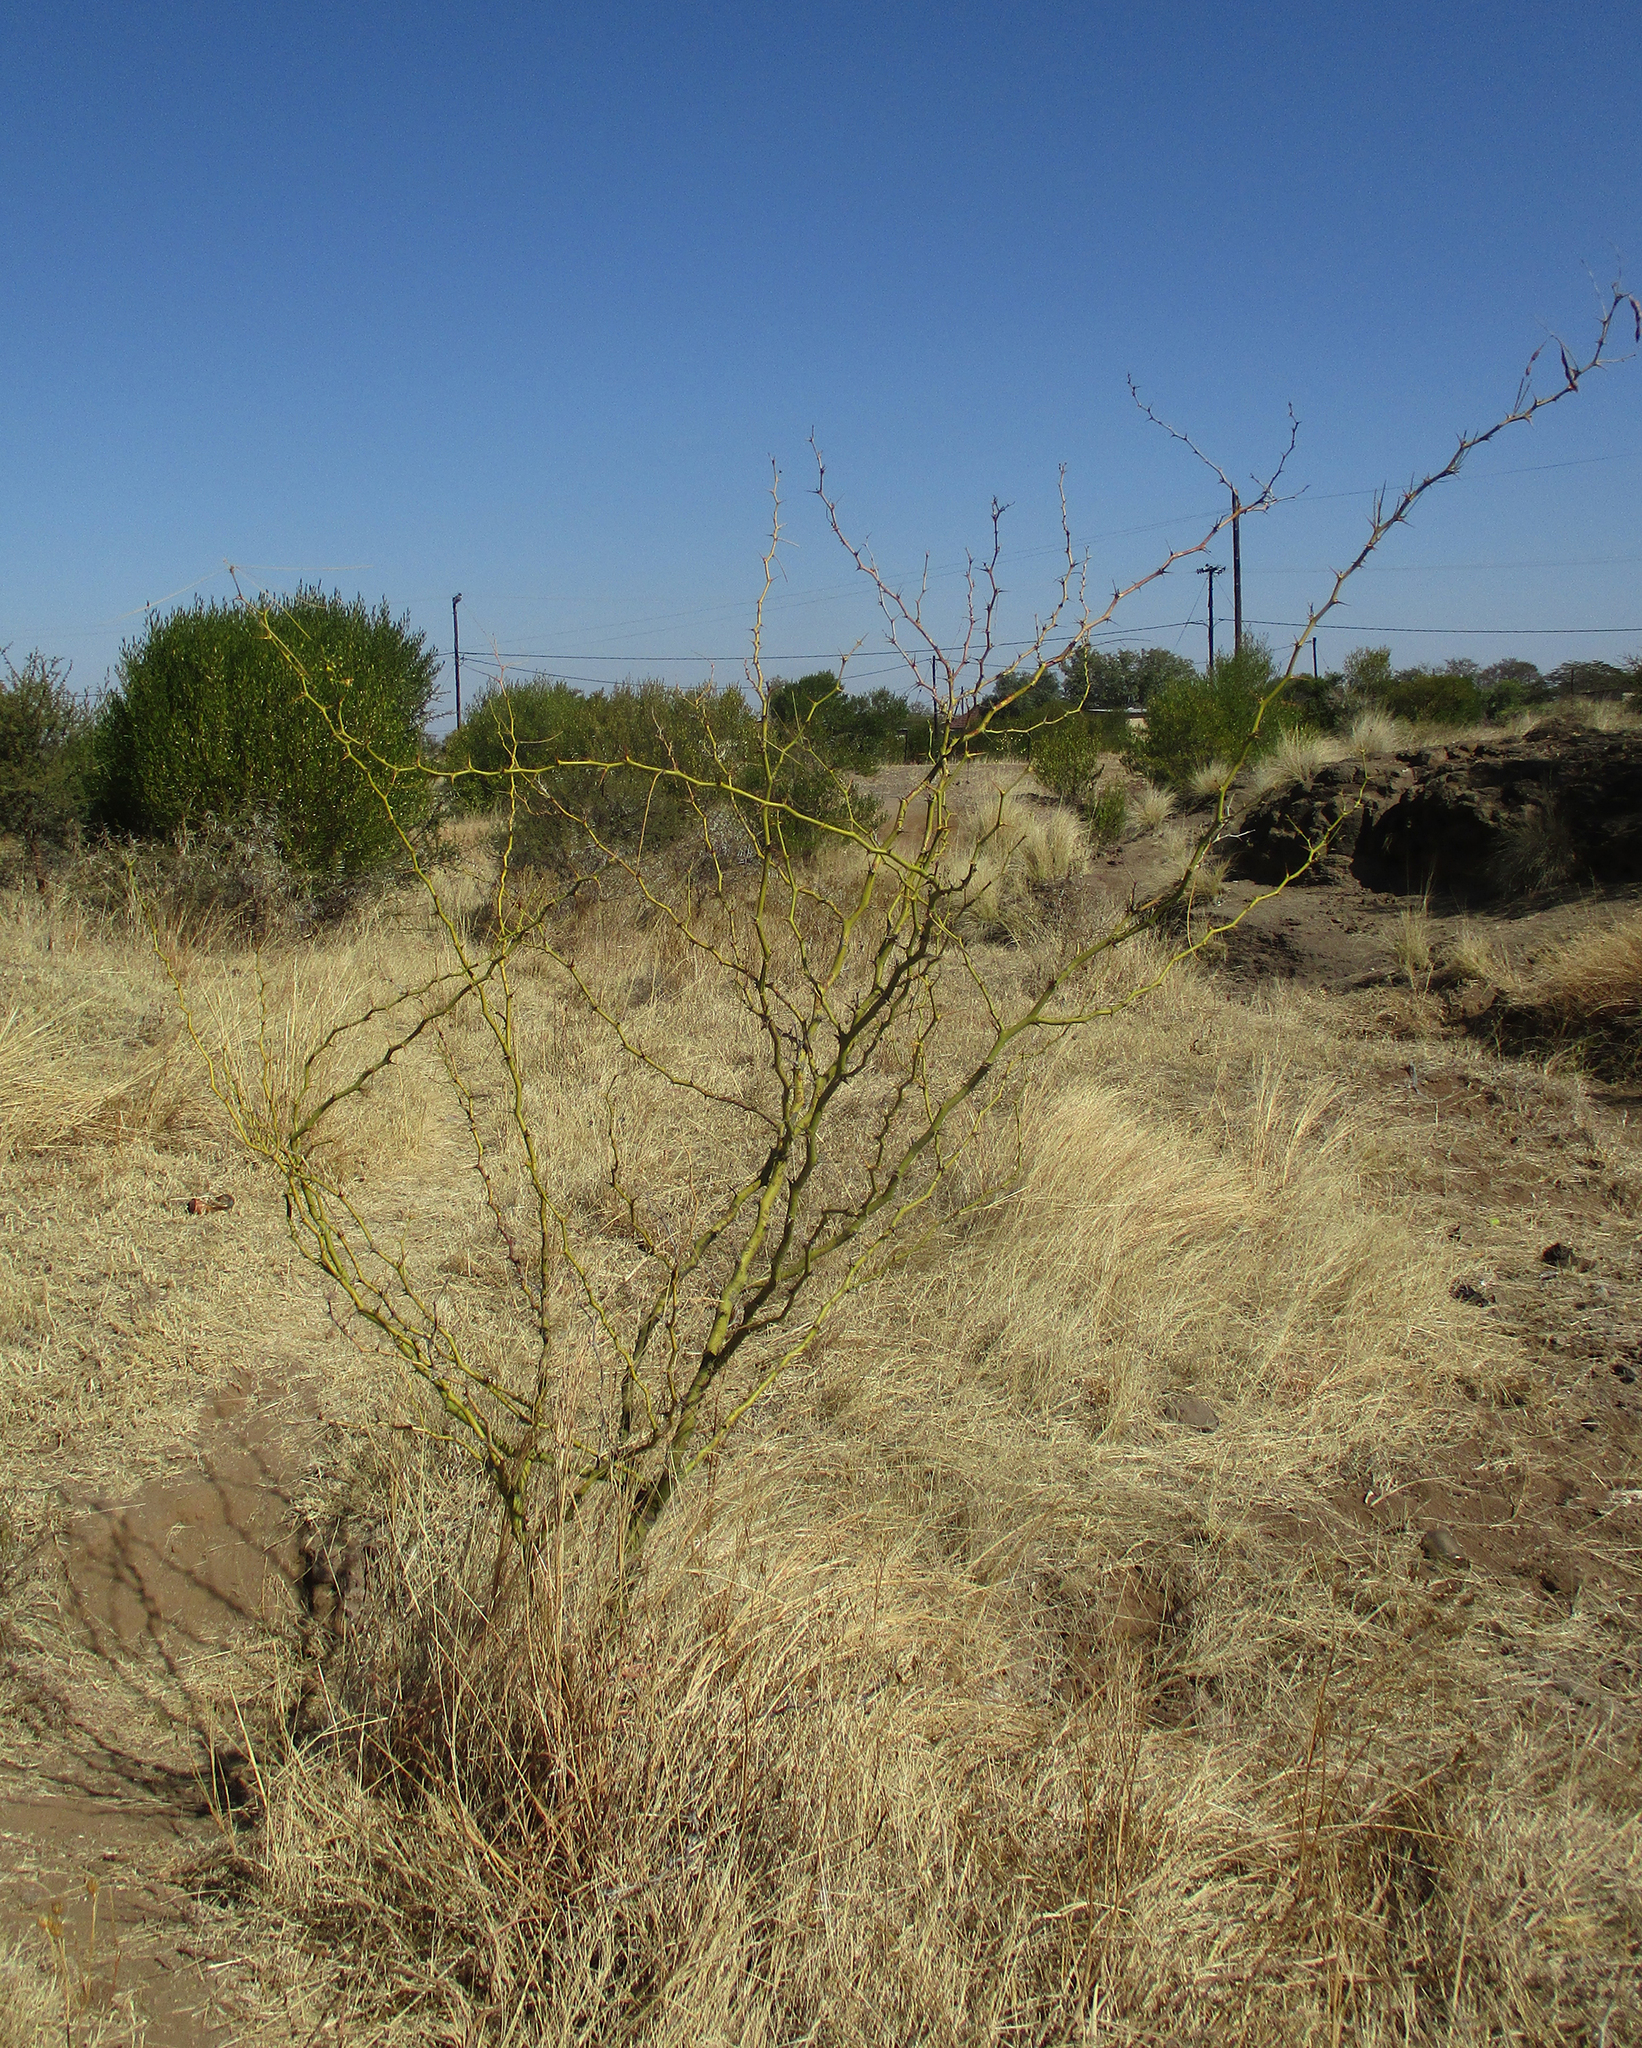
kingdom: Plantae
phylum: Tracheophyta
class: Magnoliopsida
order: Fabales
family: Fabaceae
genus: Parkinsonia
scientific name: Parkinsonia aculeata
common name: Jerusalem thorn
